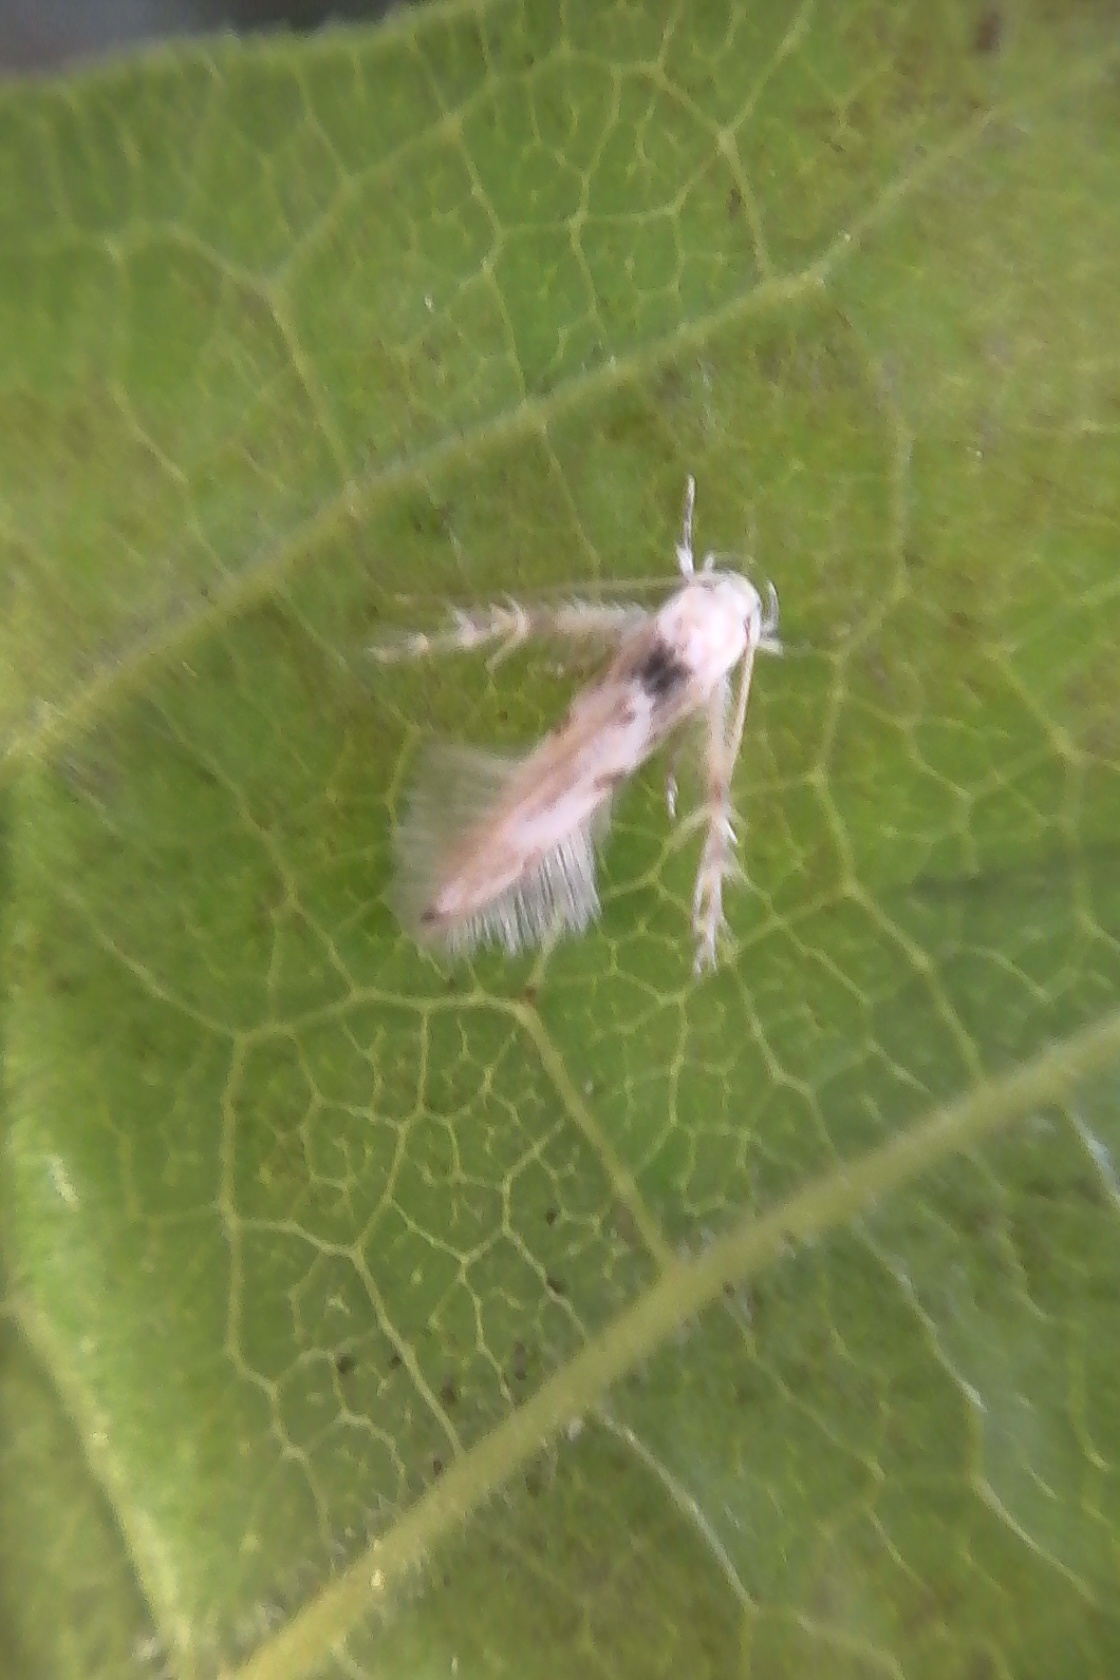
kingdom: Animalia
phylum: Arthropoda
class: Insecta
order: Lepidoptera
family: Stathmopodidae
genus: Calicotis
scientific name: Calicotis crucifera
